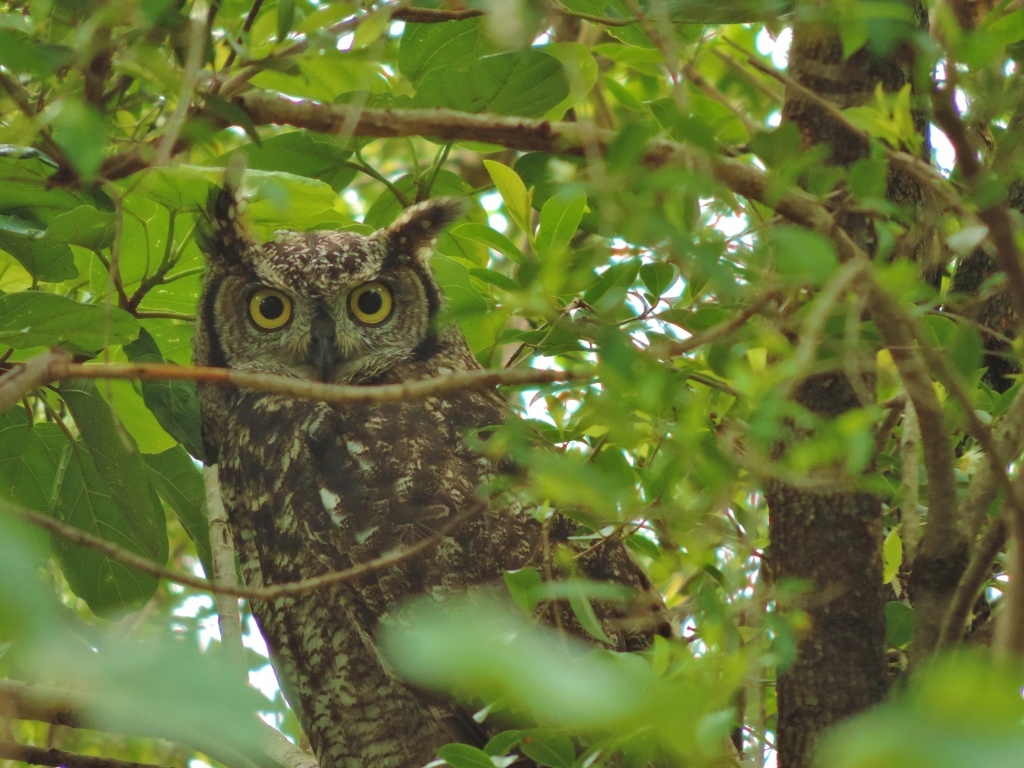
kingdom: Animalia
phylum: Chordata
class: Aves
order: Strigiformes
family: Strigidae
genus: Bubo
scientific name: Bubo africanus
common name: Spotted eagle-owl
